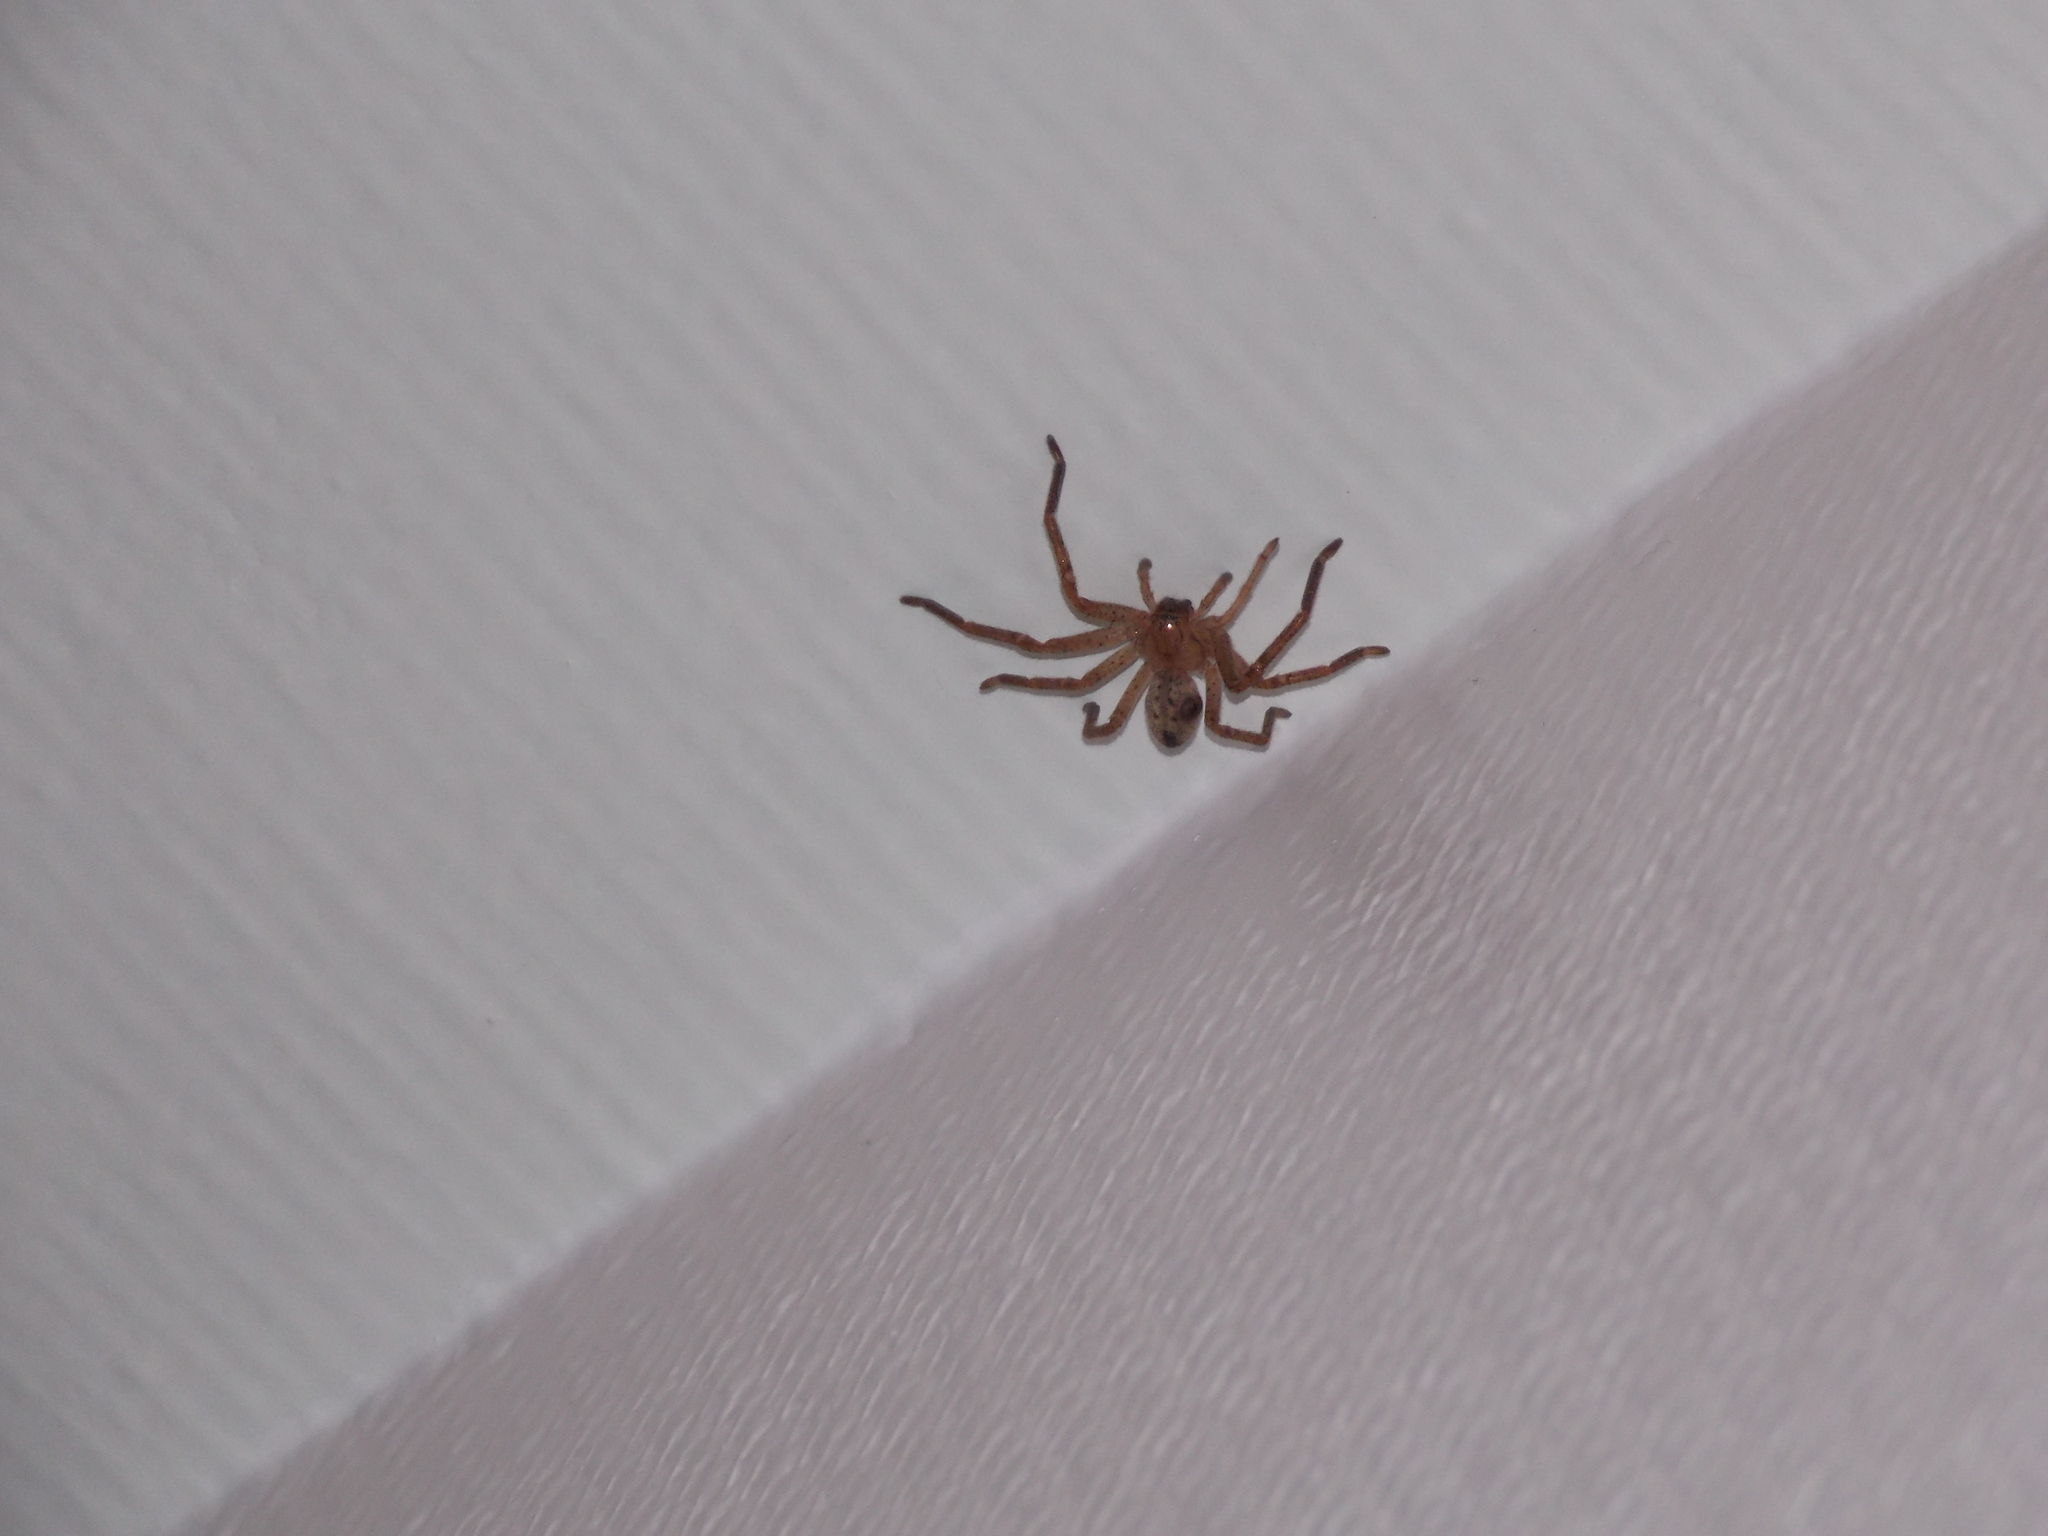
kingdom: Animalia
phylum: Arthropoda
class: Arachnida
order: Araneae
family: Sparassidae
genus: Olios
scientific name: Olios argelasius
